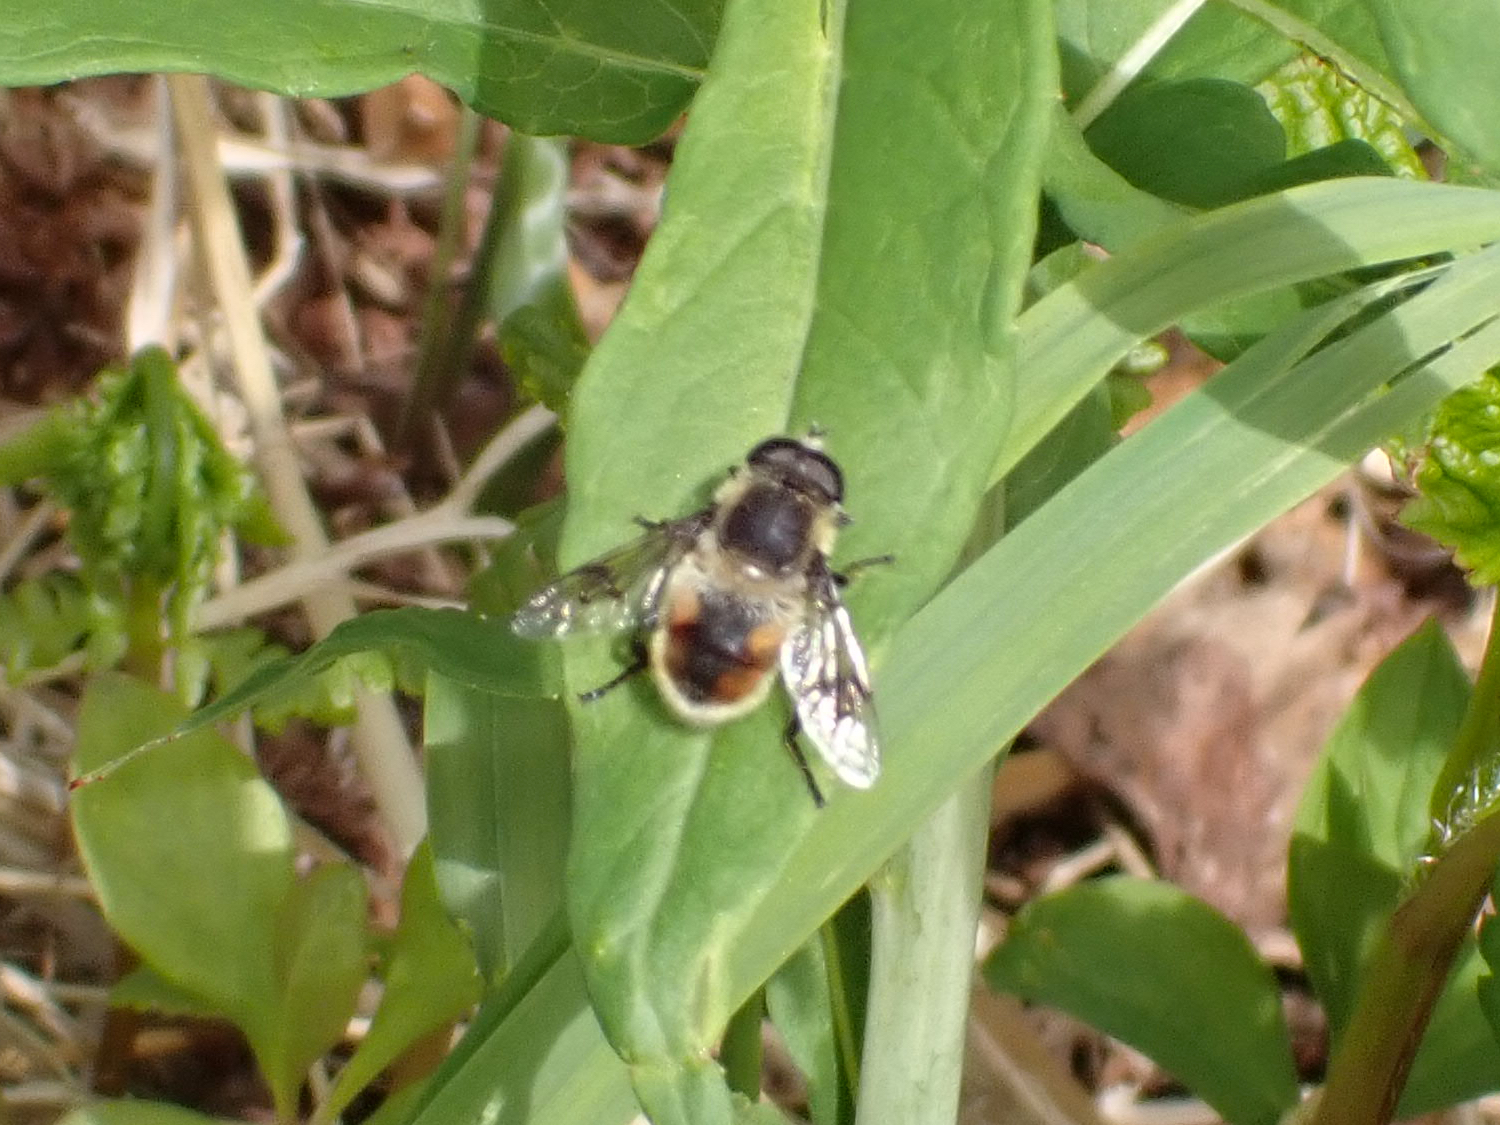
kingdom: Animalia
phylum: Arthropoda
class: Insecta
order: Diptera
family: Syrphidae
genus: Eristalis
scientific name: Eristalis anthophorina
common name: Orange-spotted drone fly
